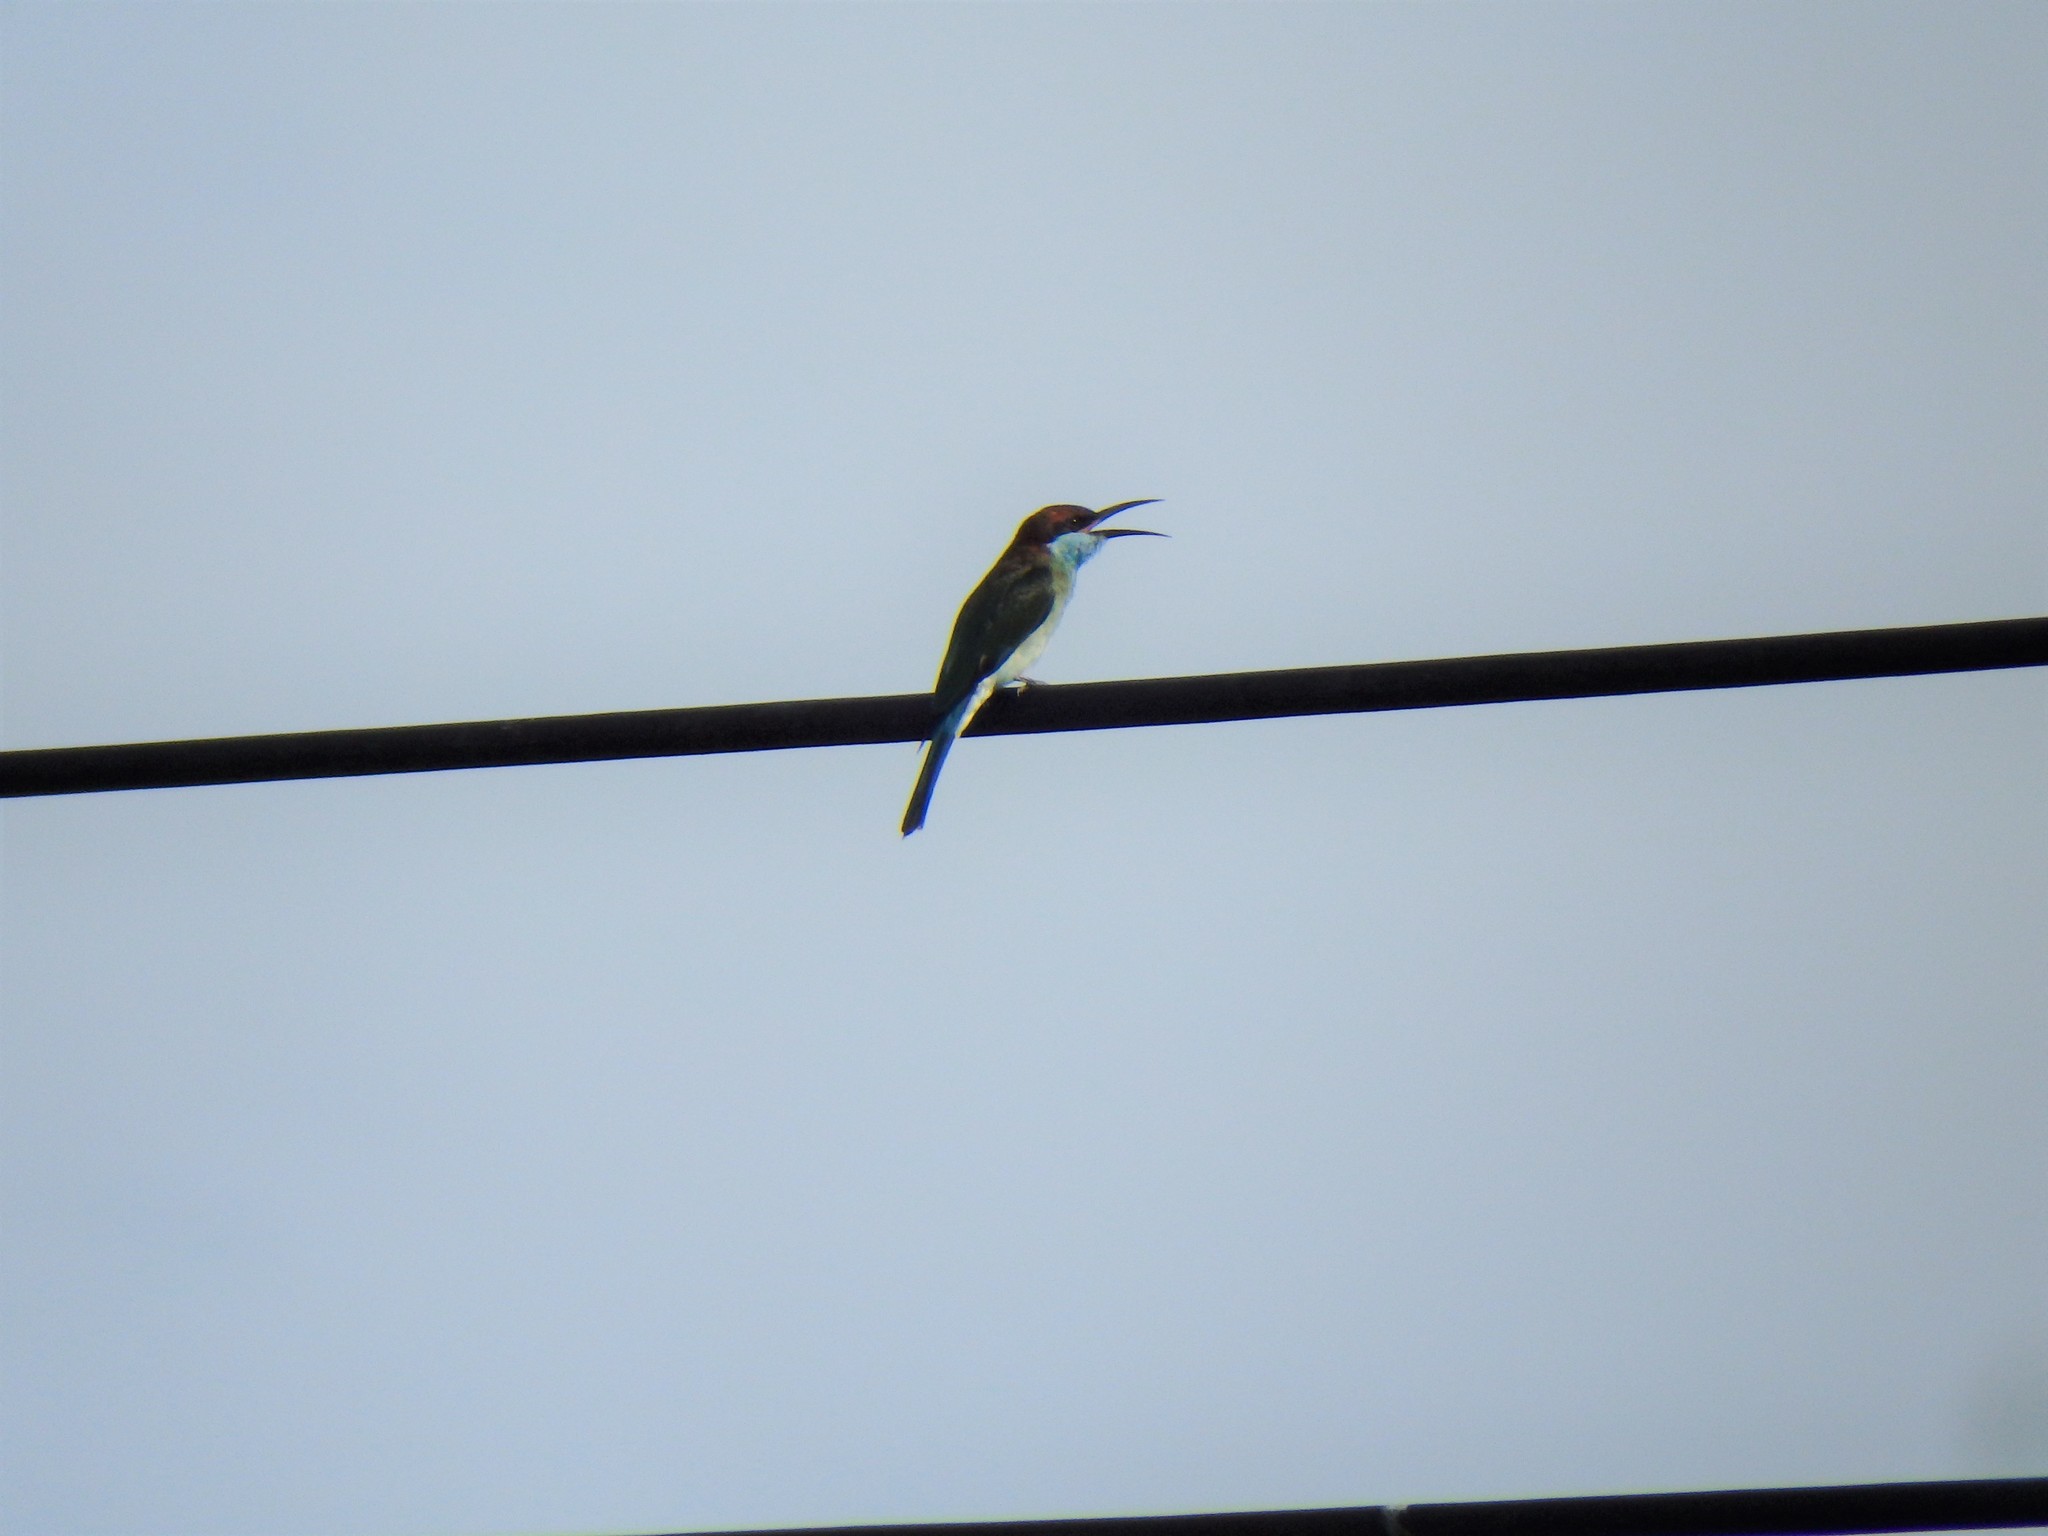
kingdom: Animalia
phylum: Chordata
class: Aves
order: Coraciiformes
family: Meropidae
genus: Merops
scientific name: Merops viridis
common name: Blue-throated bee-eater
